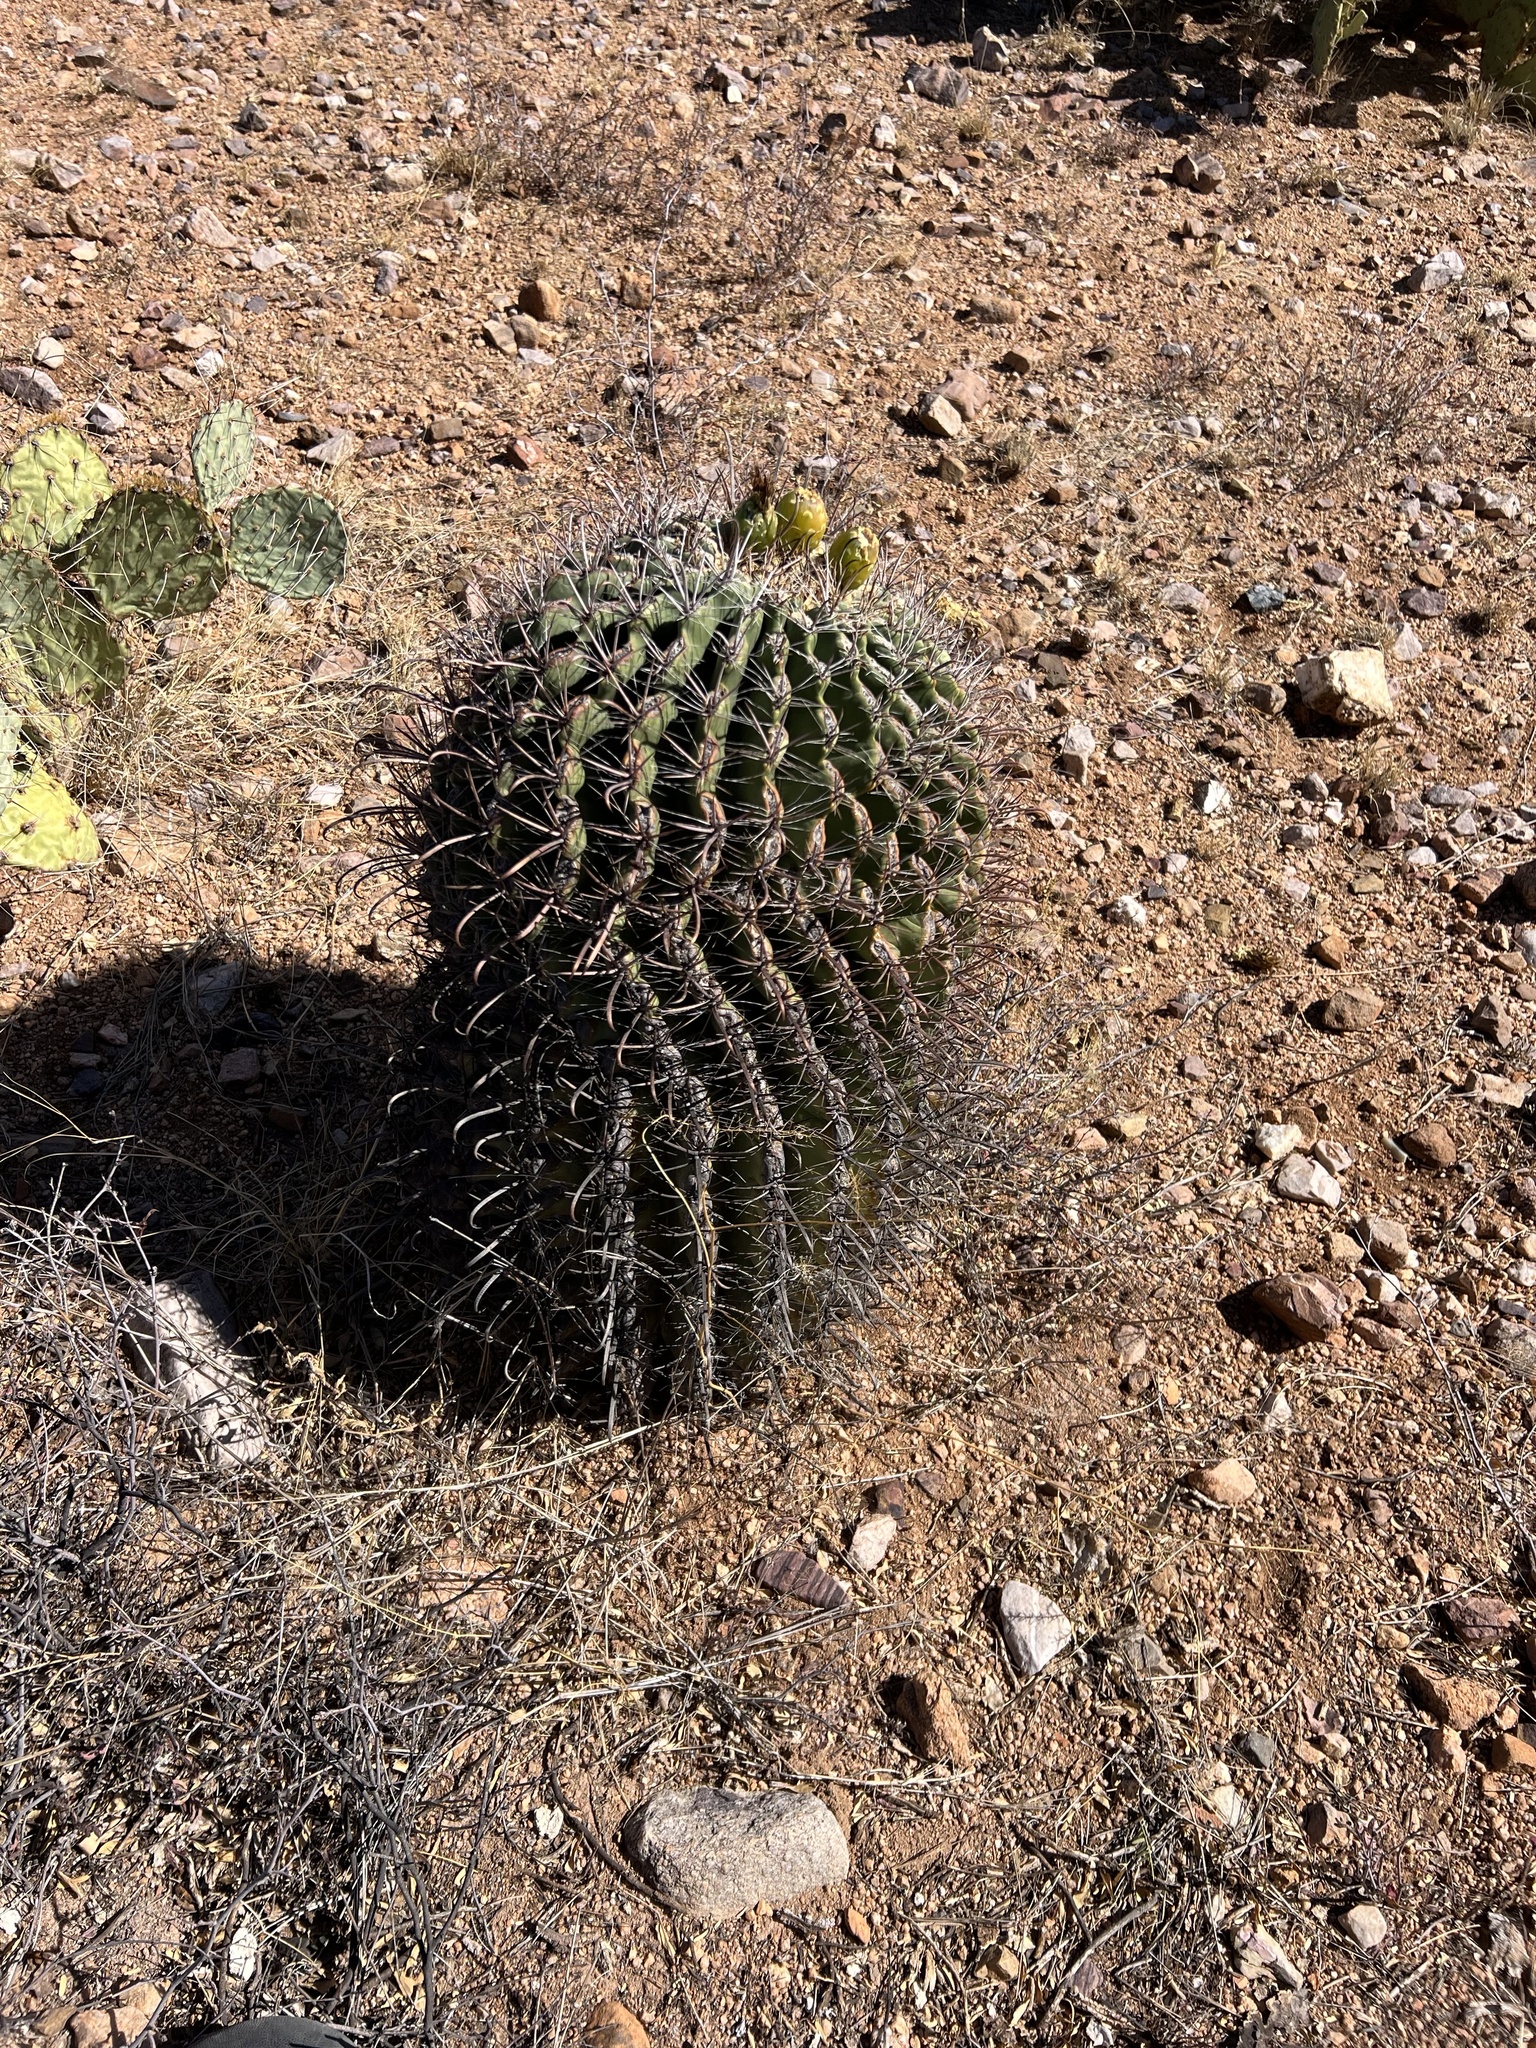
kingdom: Plantae
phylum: Tracheophyta
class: Magnoliopsida
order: Caryophyllales
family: Cactaceae
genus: Ferocactus
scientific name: Ferocactus wislizeni
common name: Candy barrel cactus
